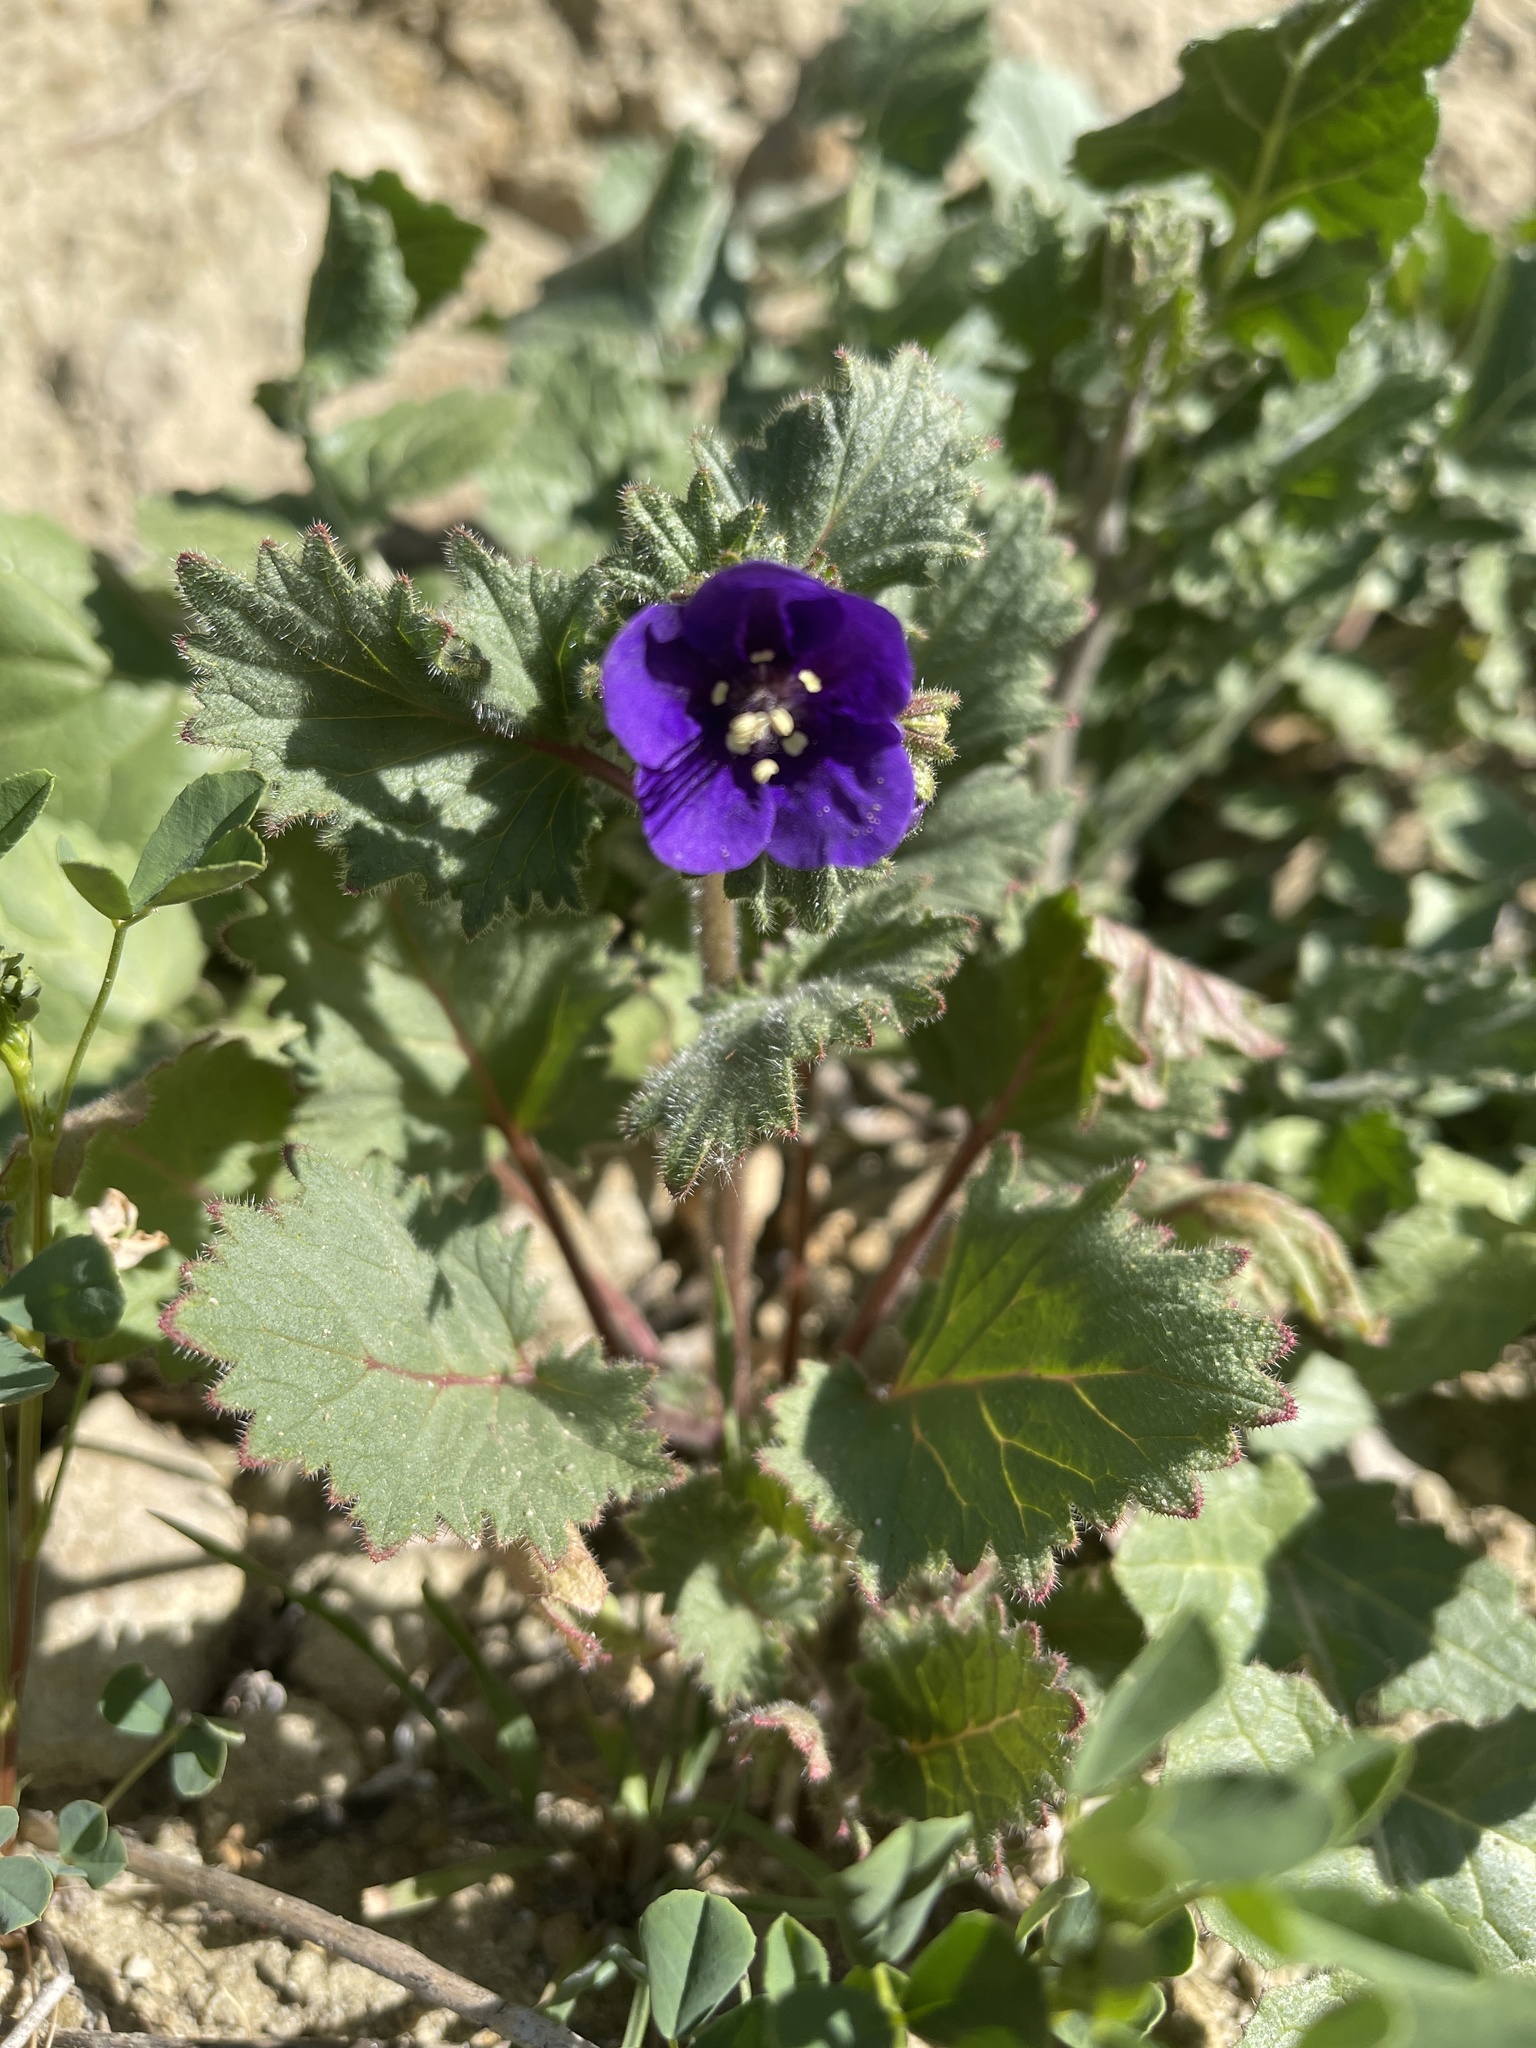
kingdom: Plantae
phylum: Tracheophyta
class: Magnoliopsida
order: Boraginales
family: Hydrophyllaceae
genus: Phacelia
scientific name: Phacelia parryi
